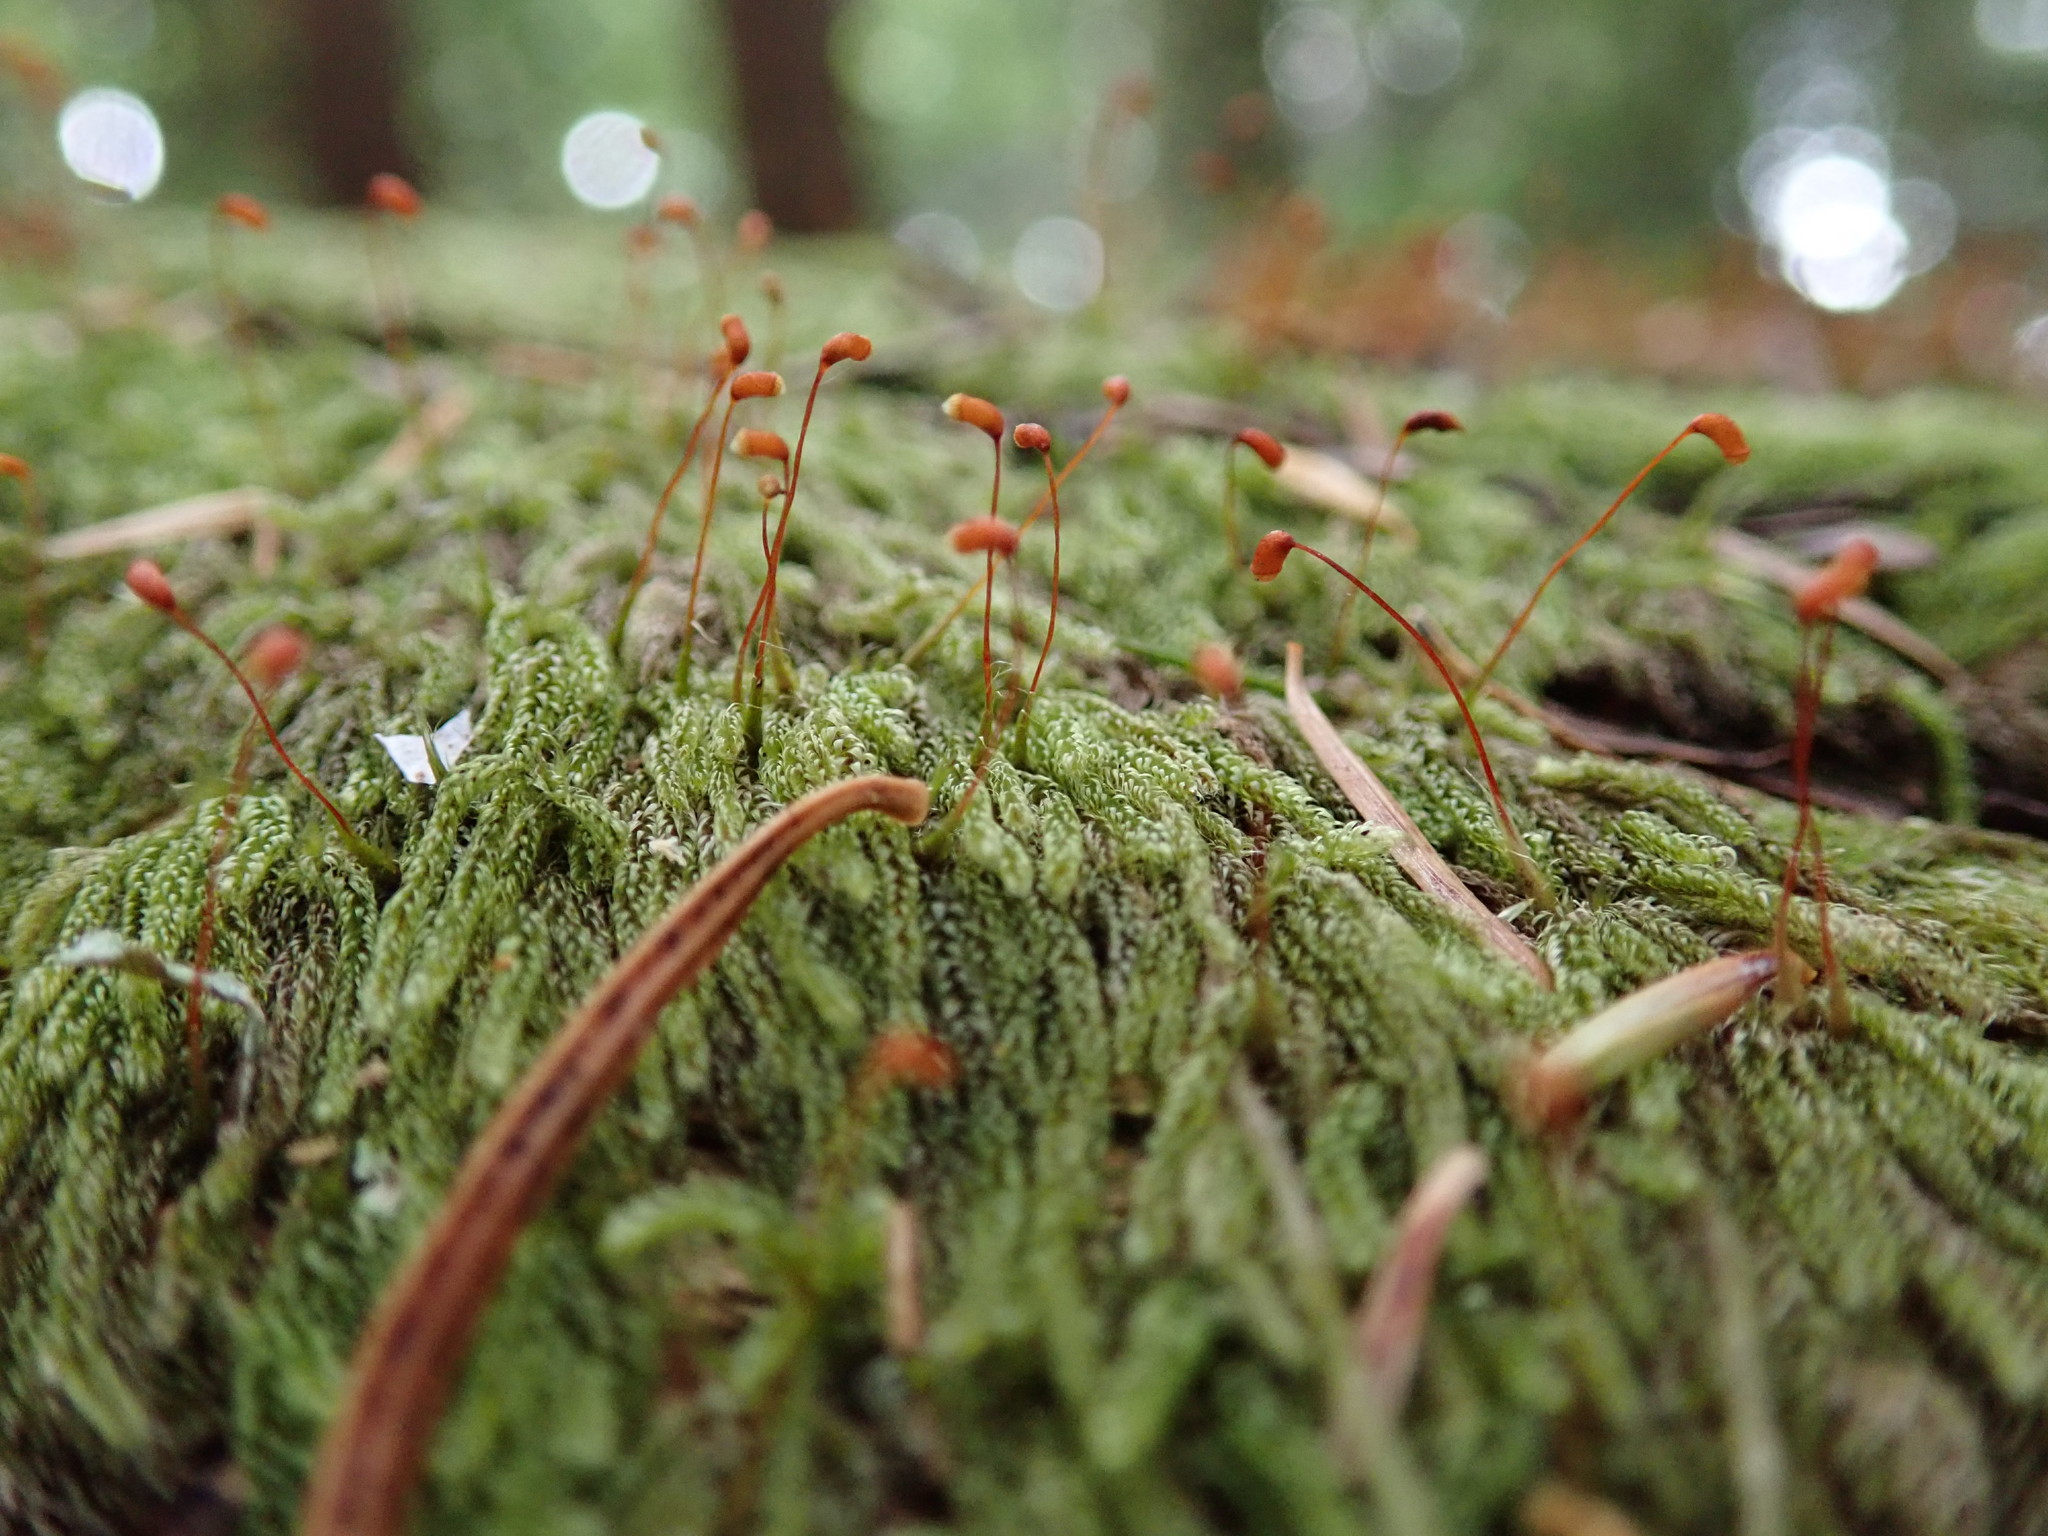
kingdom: Plantae
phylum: Bryophyta
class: Bryopsida
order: Hypnales
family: Pylaisiadelphaceae
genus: Trochophyllohypnum
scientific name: Trochophyllohypnum circinale
